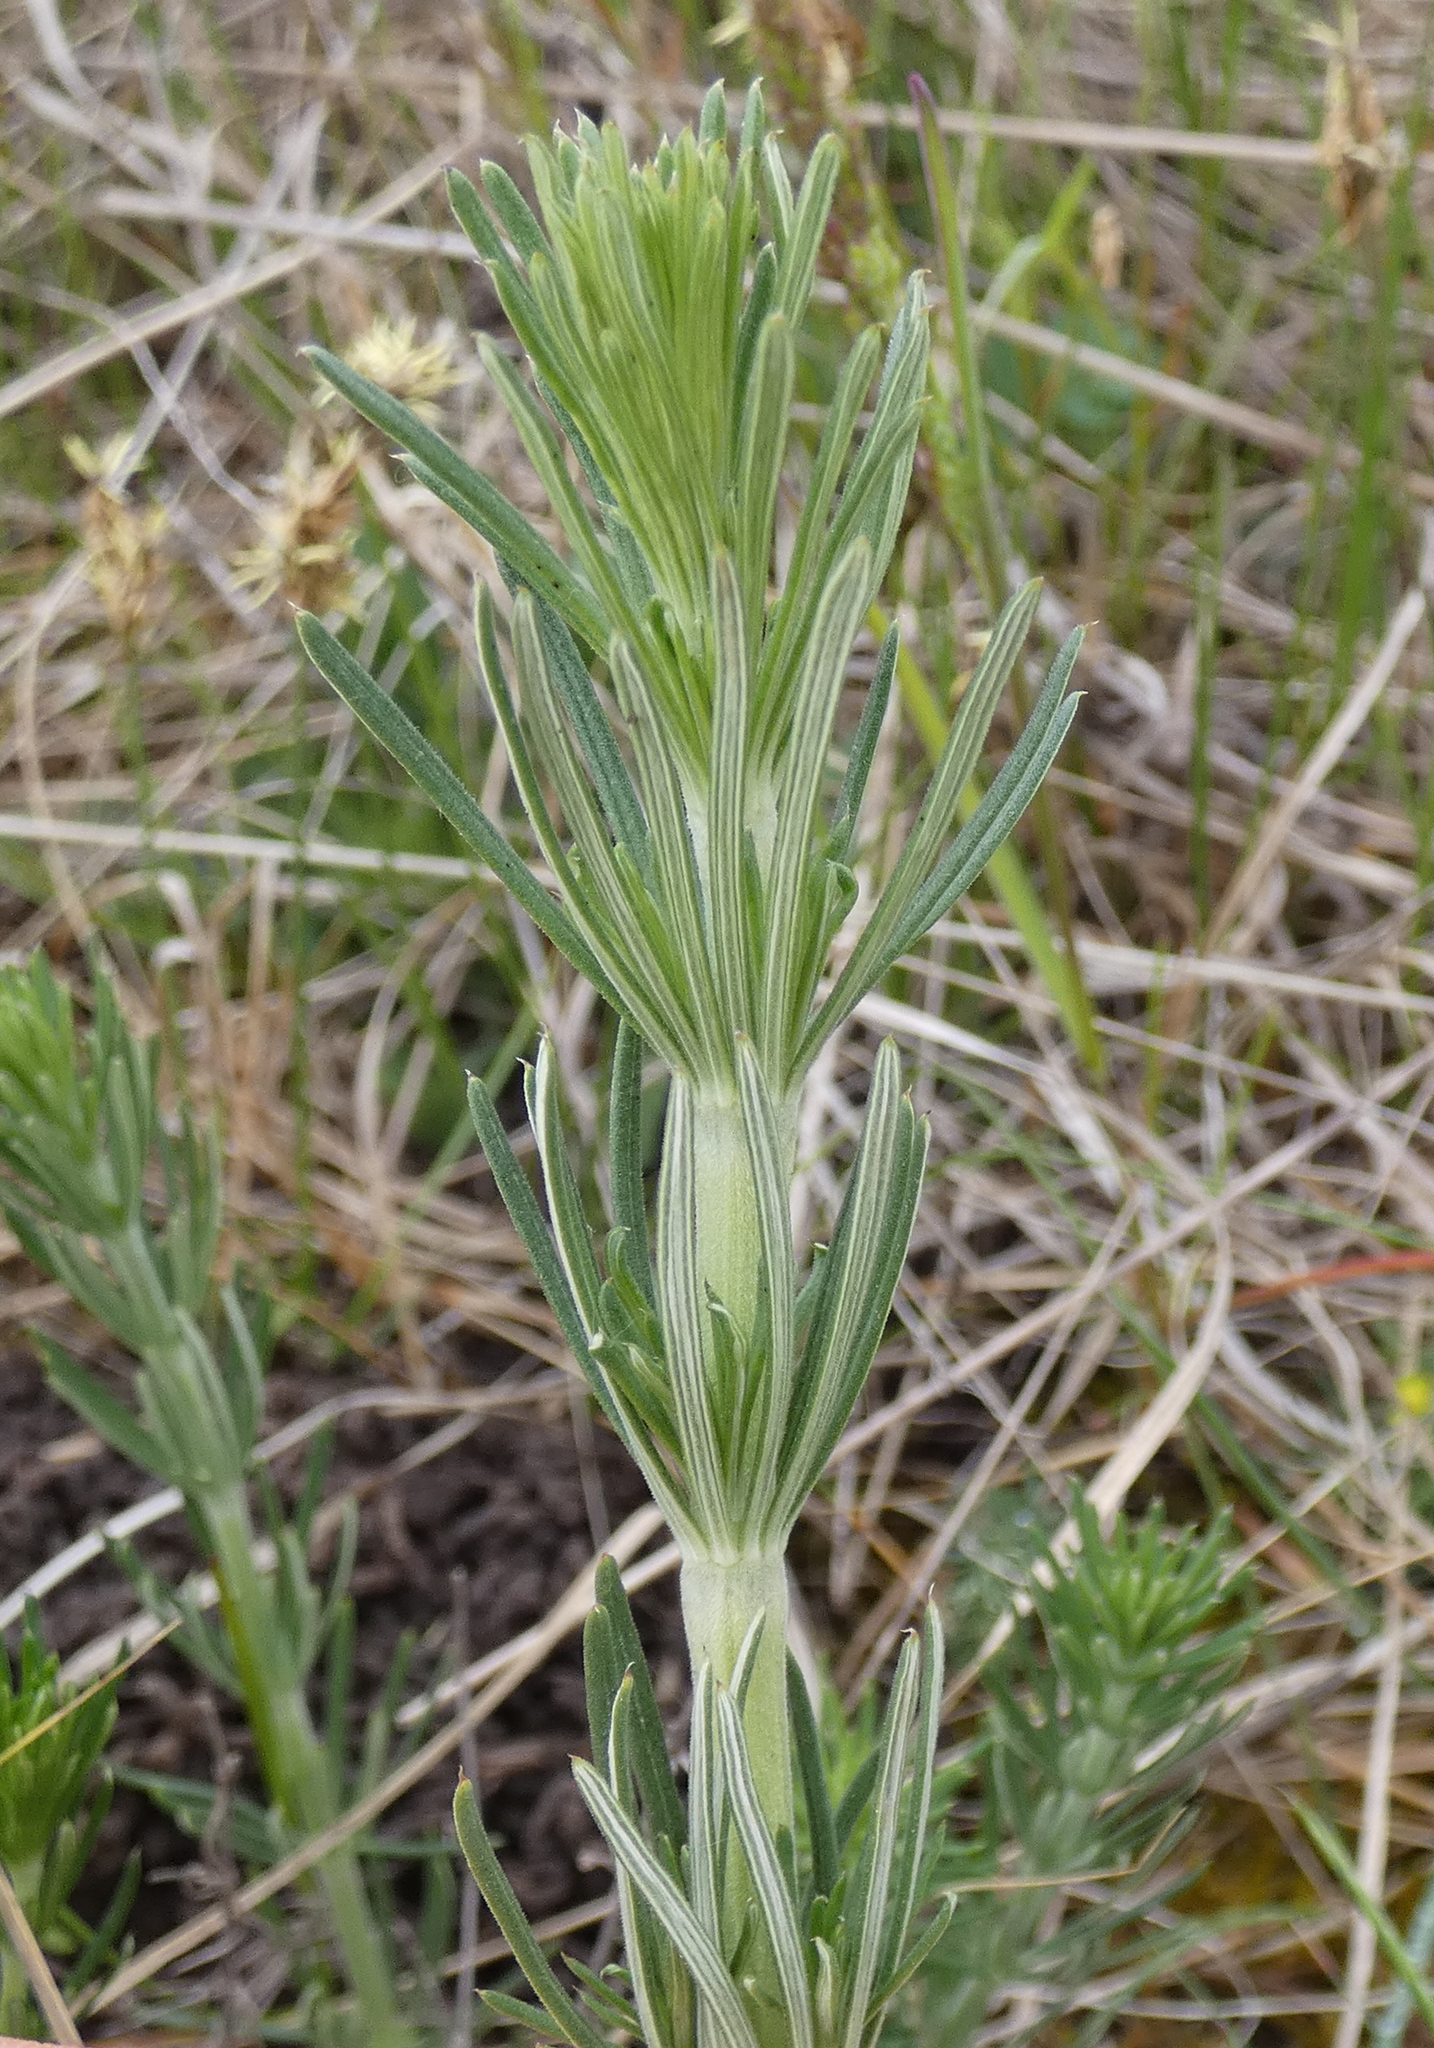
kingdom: Plantae
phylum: Tracheophyta
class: Magnoliopsida
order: Gentianales
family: Rubiaceae
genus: Galium
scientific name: Galium verum
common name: Lady's bedstraw
